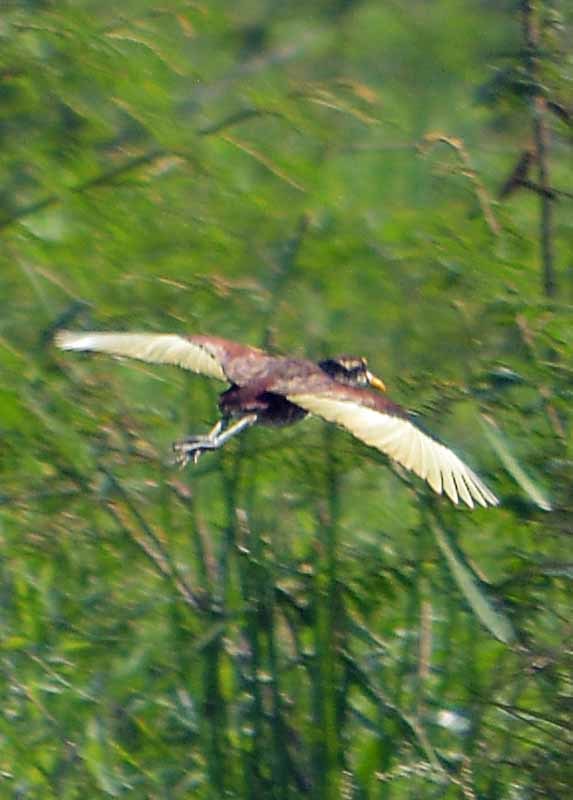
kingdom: Animalia
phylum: Chordata
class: Aves
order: Charadriiformes
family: Jacanidae
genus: Jacana
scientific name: Jacana spinosa
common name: Northern jacana
